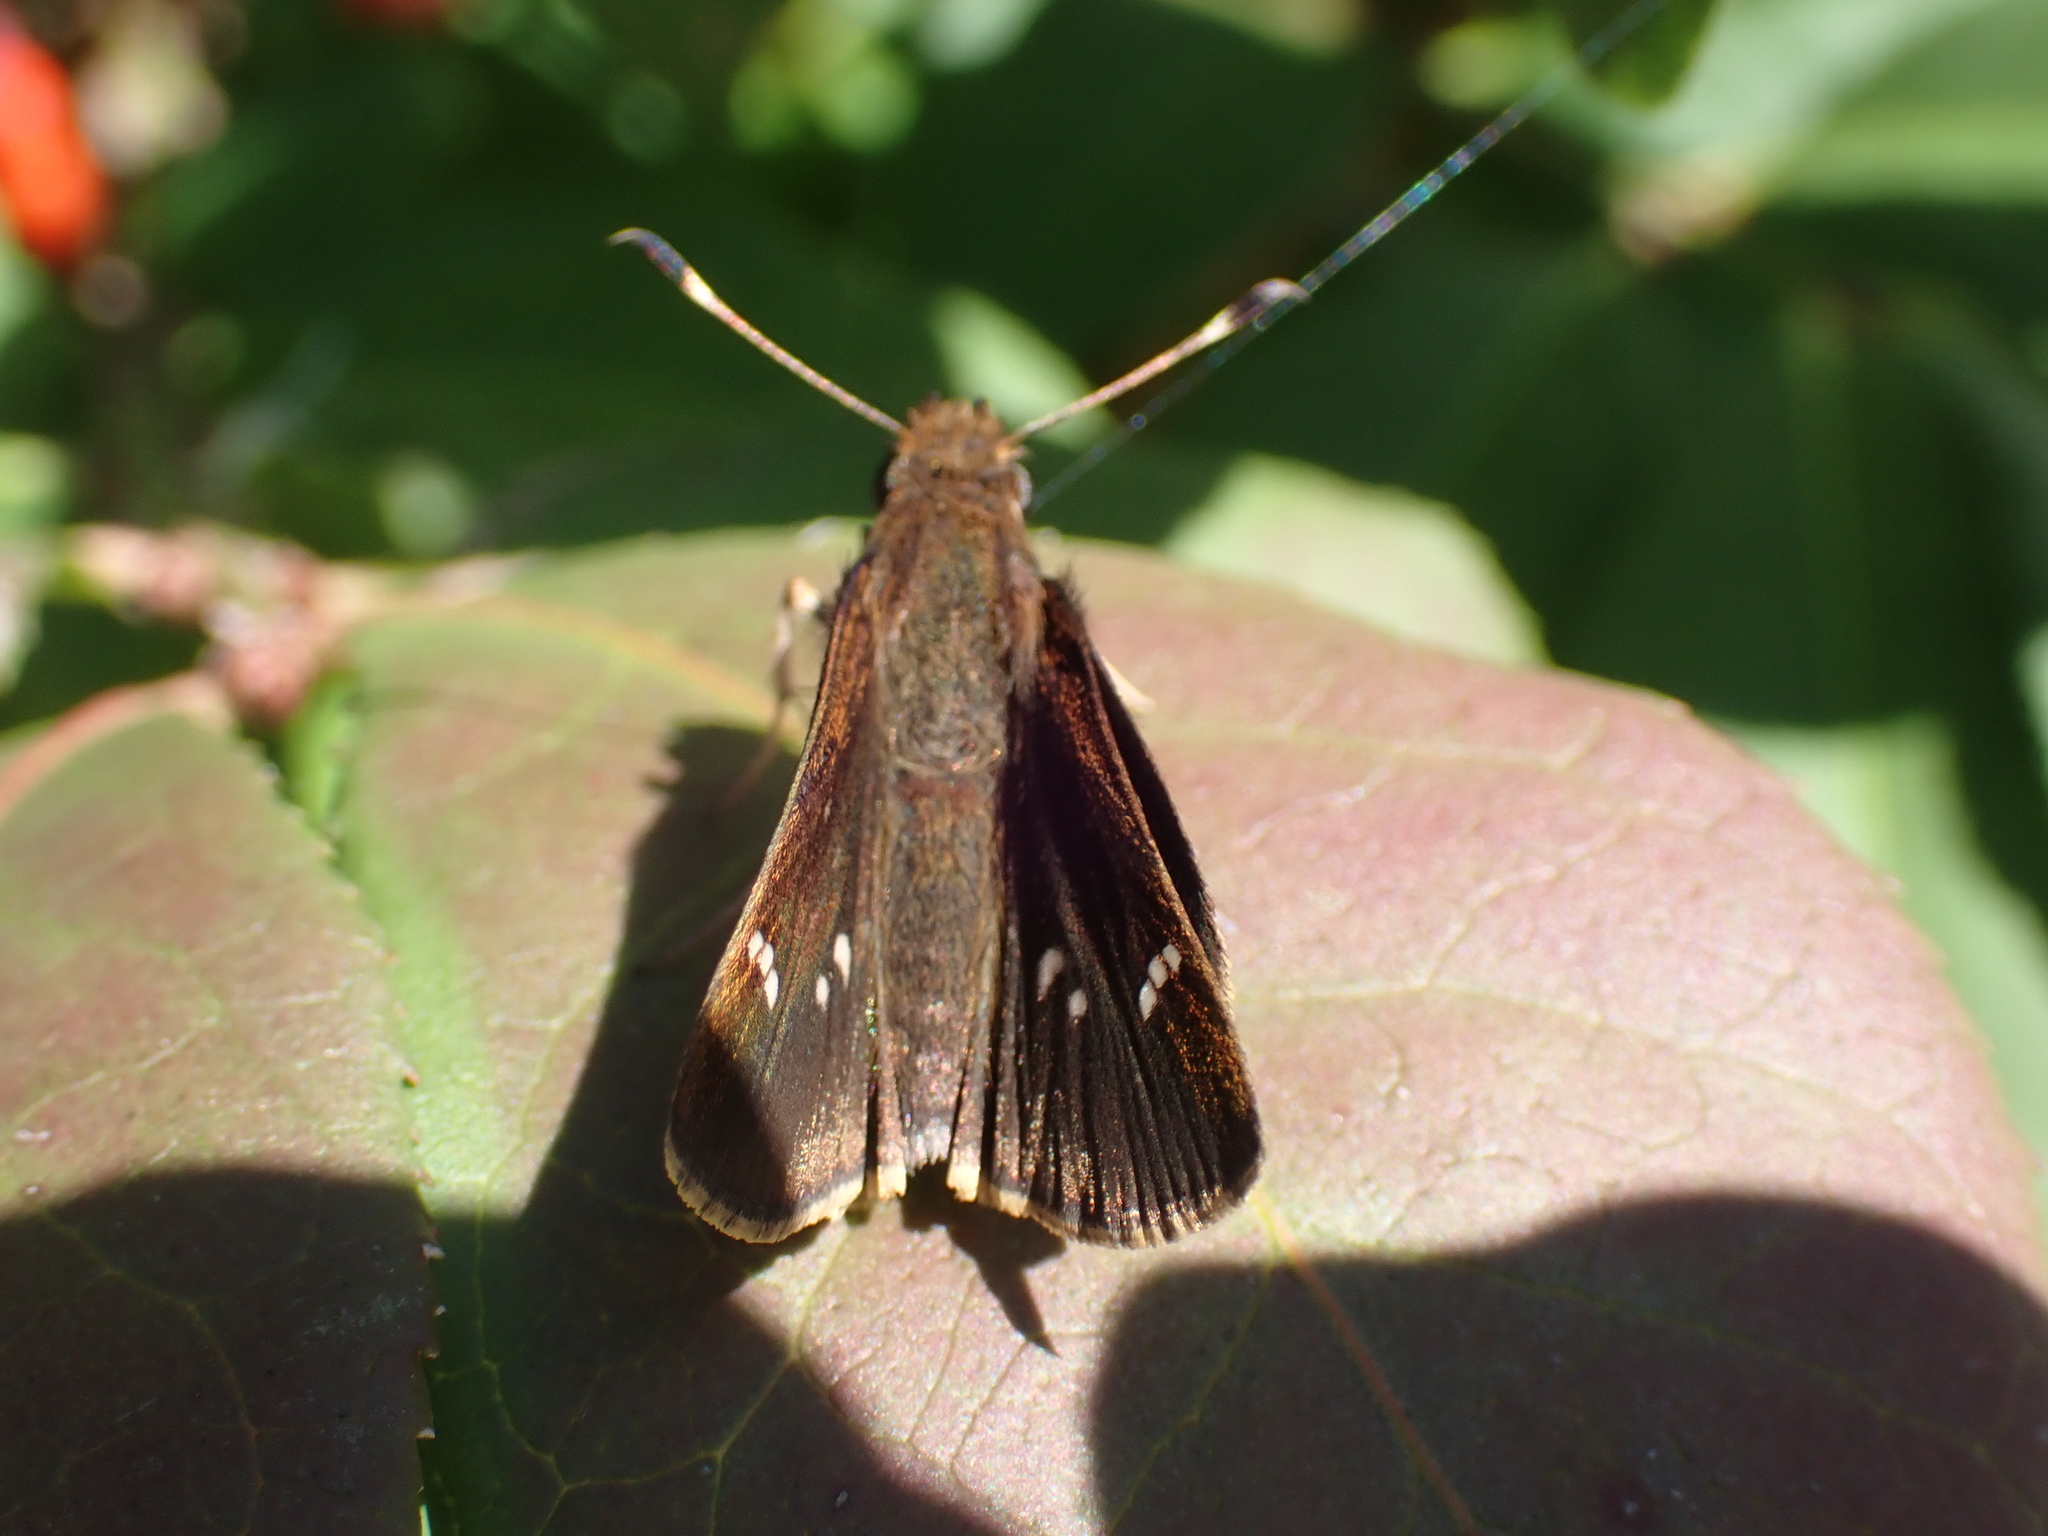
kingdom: Animalia
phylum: Arthropoda
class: Insecta
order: Lepidoptera
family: Hesperiidae
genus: Lerema
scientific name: Lerema accius
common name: Clouded skipper
